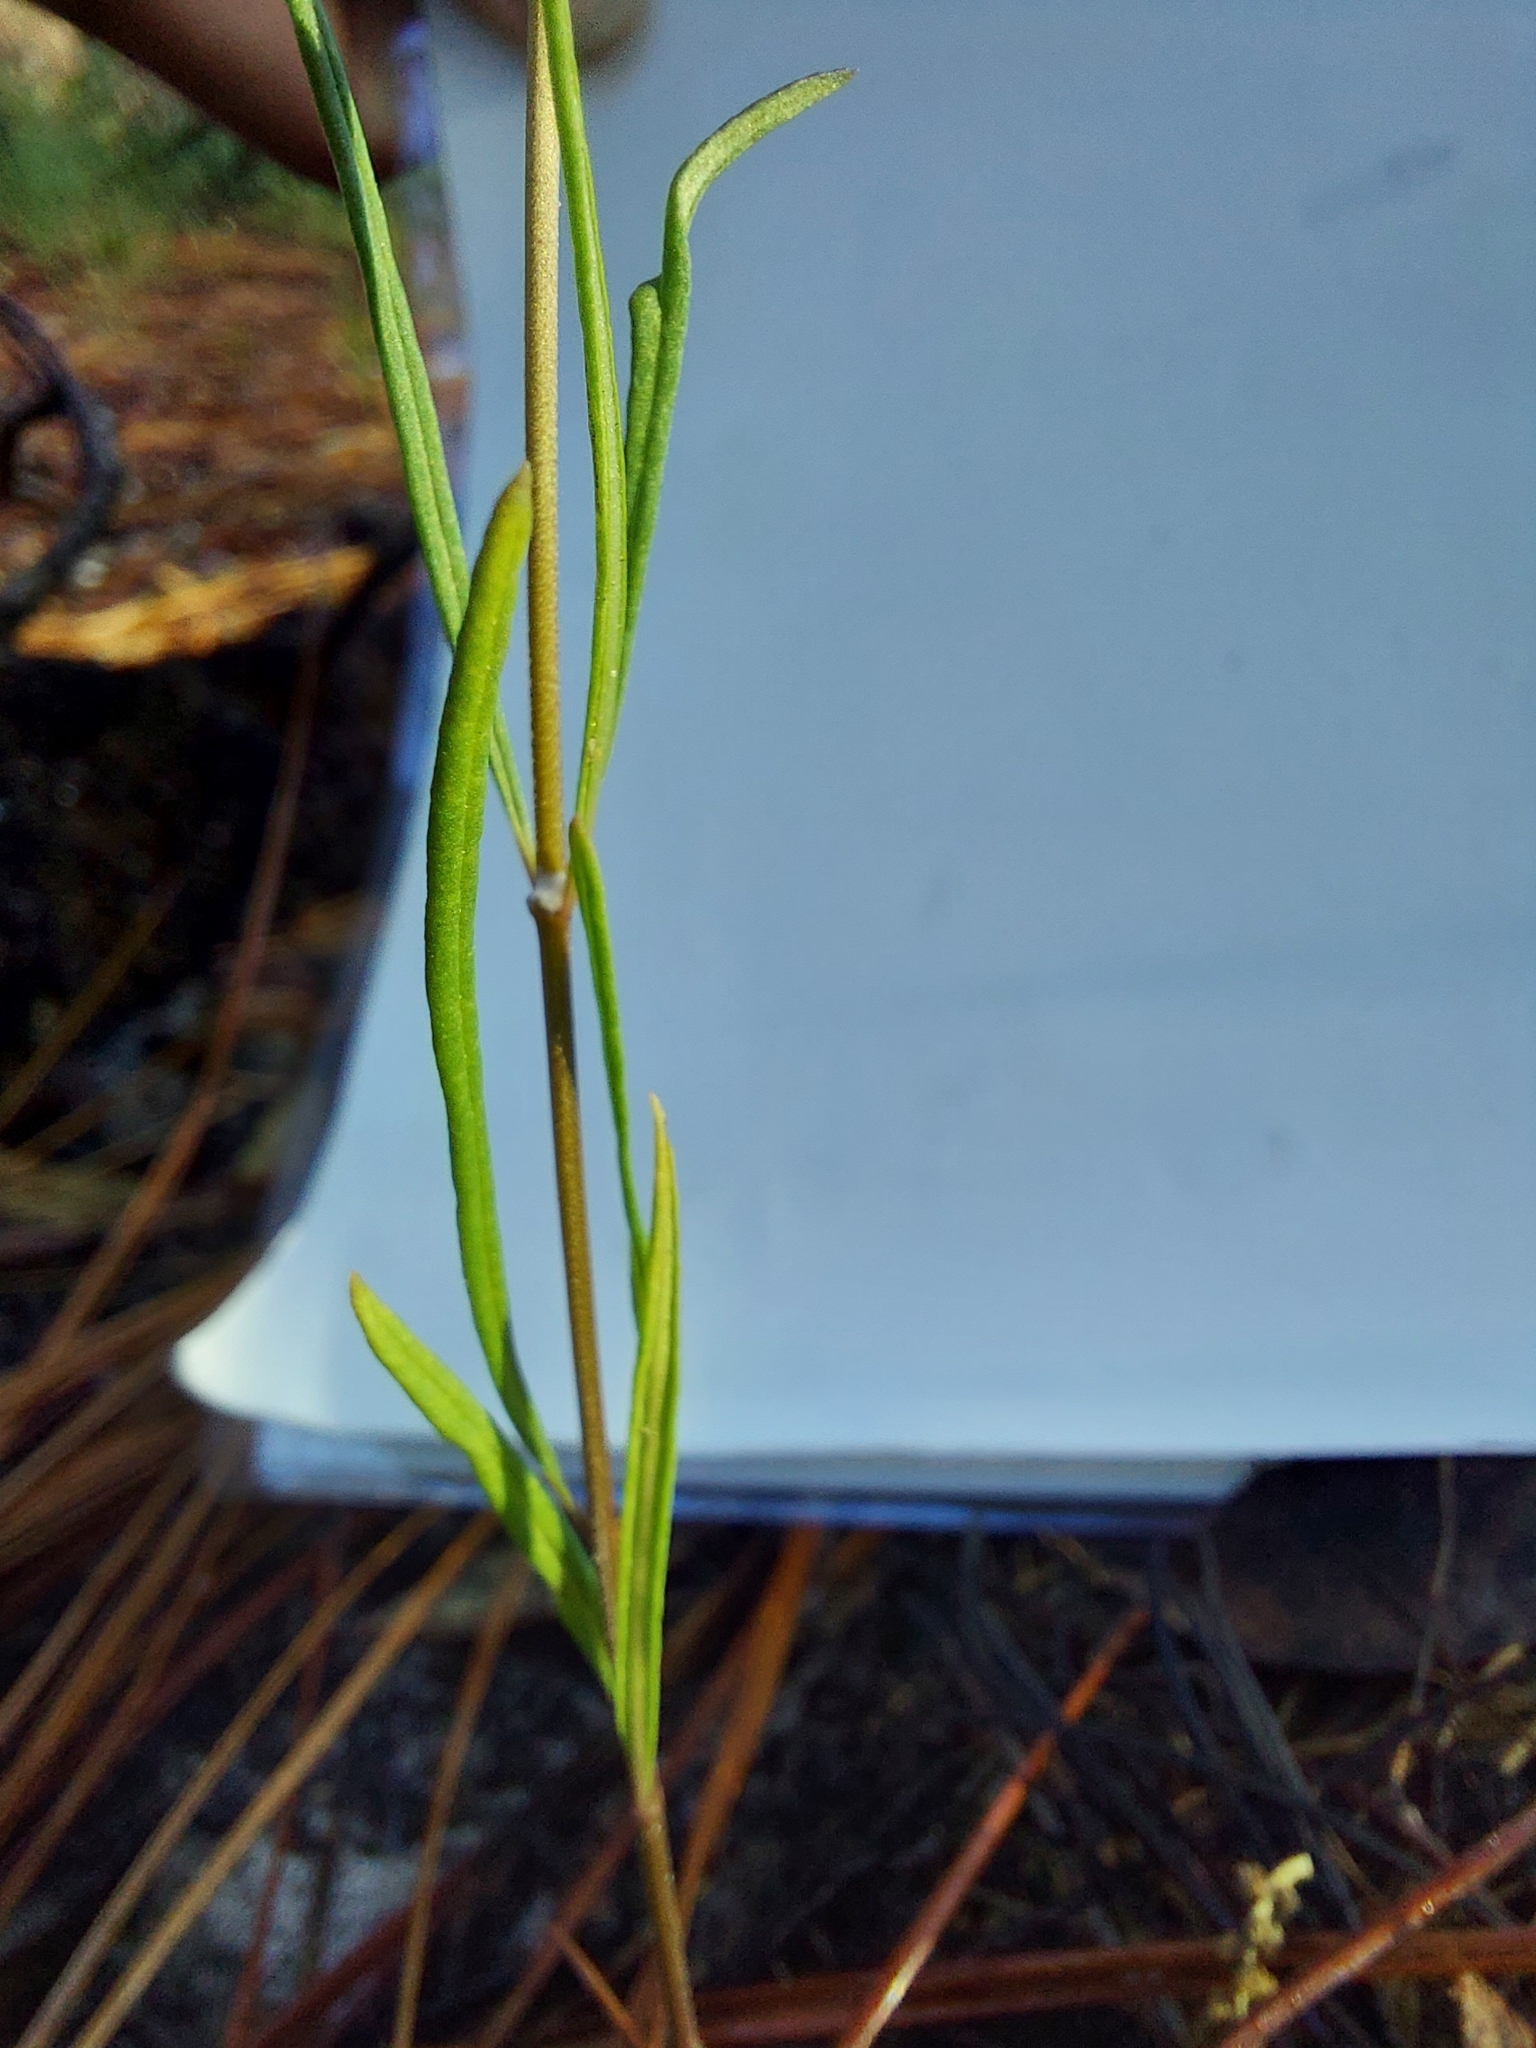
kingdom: Plantae
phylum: Tracheophyta
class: Magnoliopsida
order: Gentianales
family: Apocynaceae
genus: Asclepias
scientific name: Asclepias verticillata
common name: Eastern whorled milkweed
